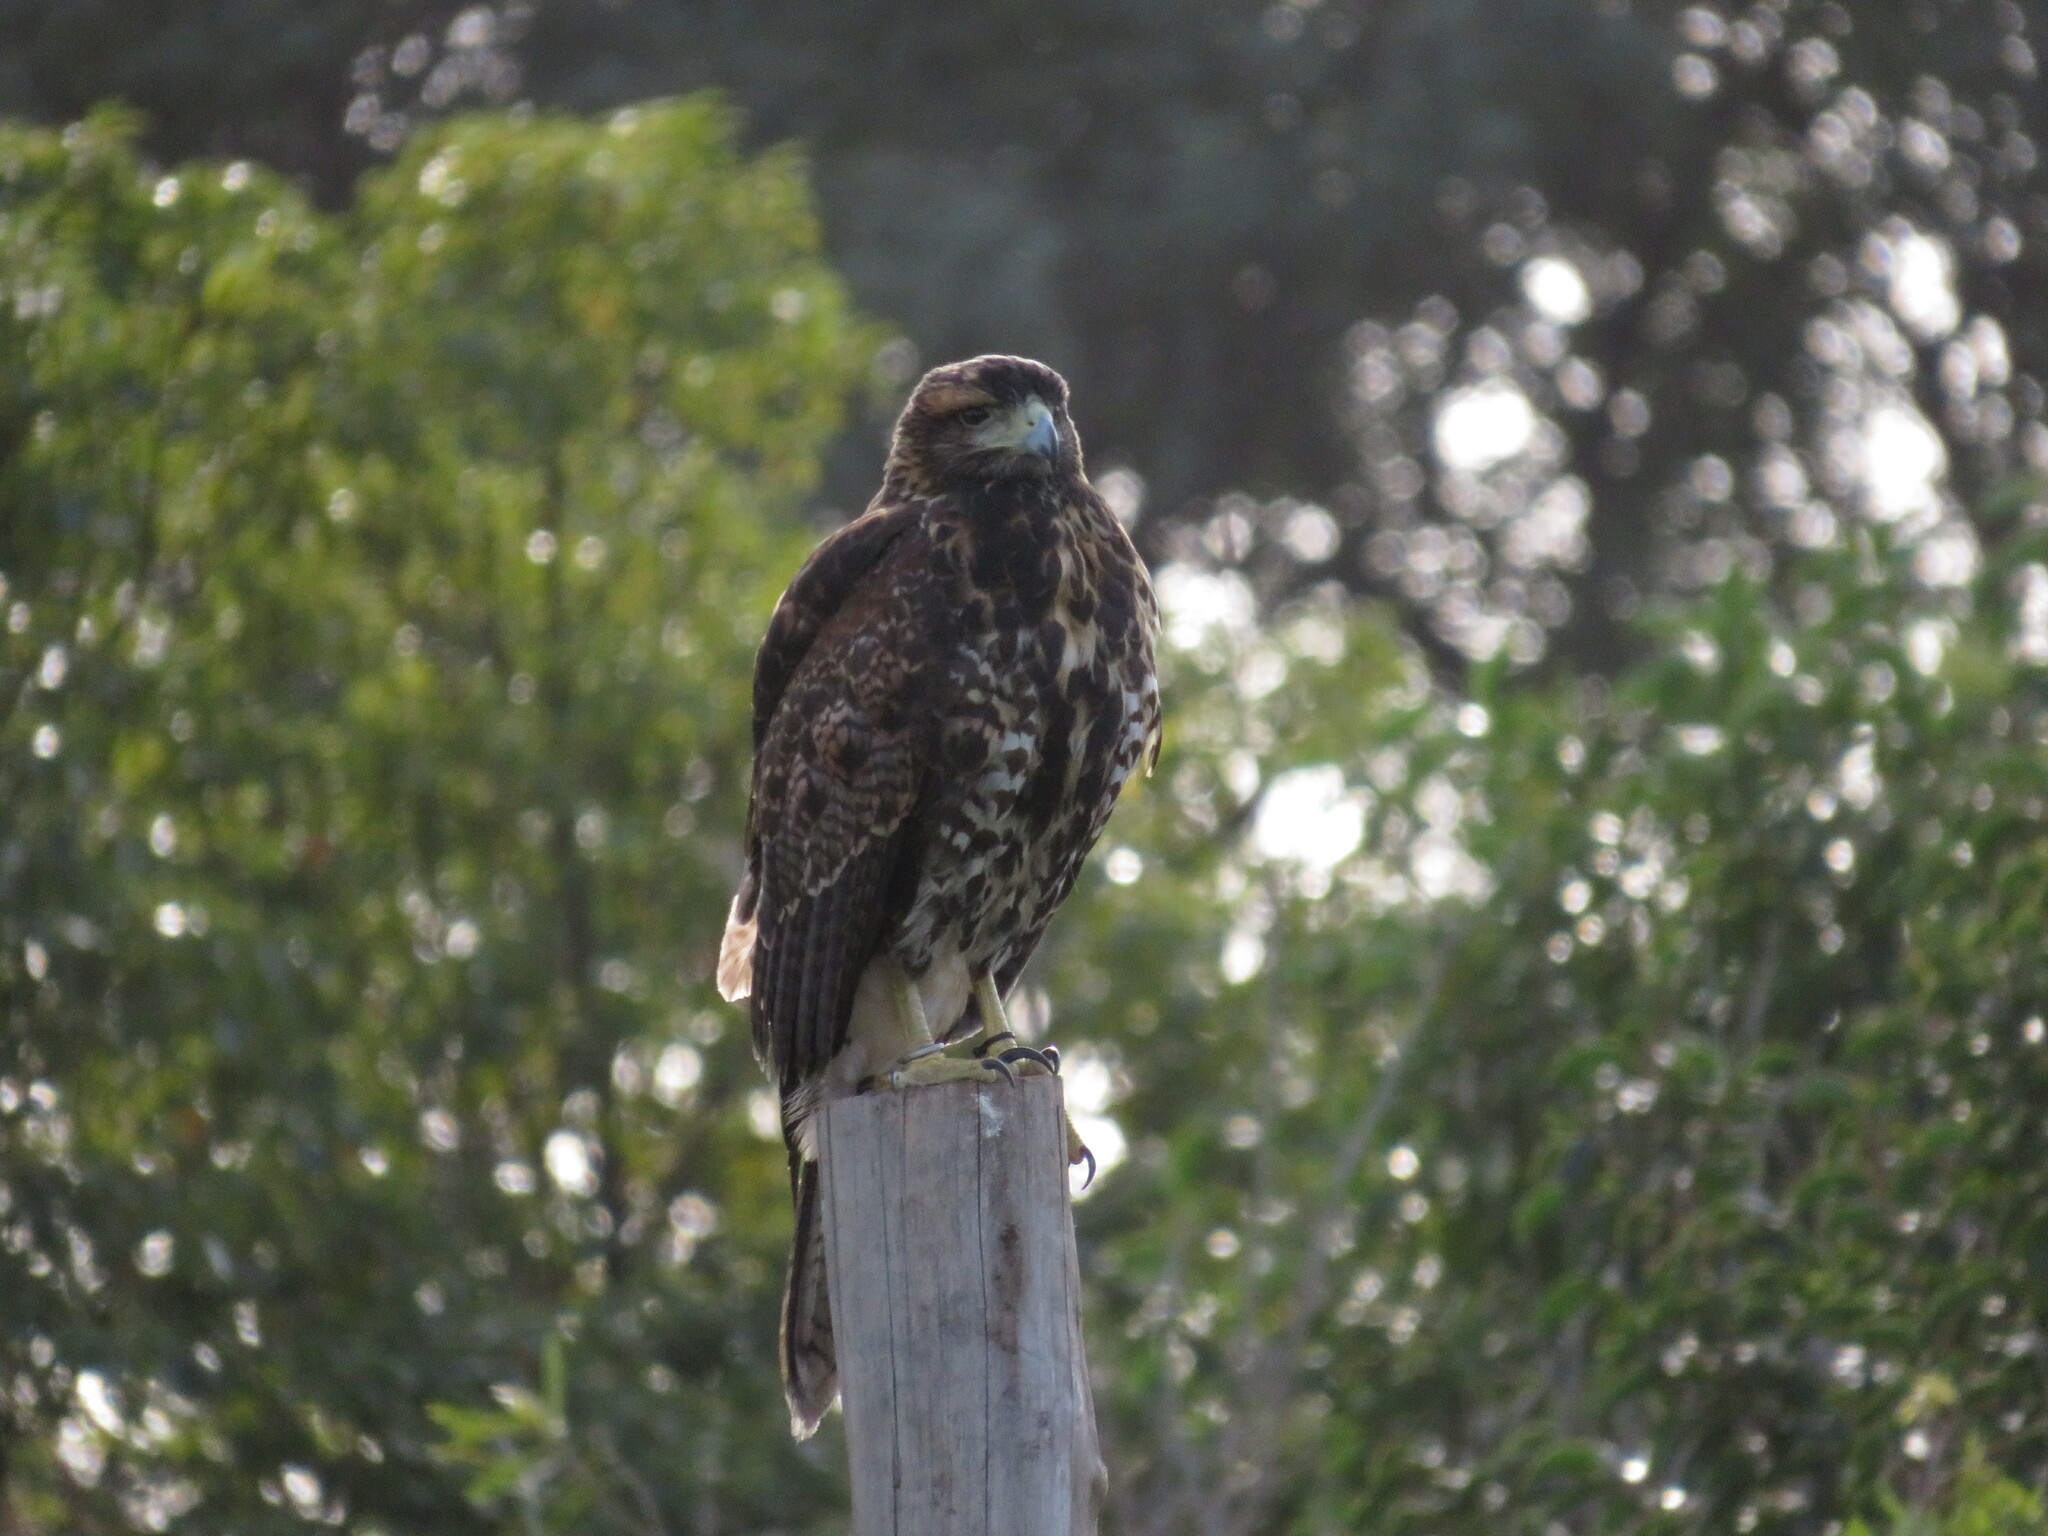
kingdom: Animalia
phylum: Chordata
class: Aves
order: Accipitriformes
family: Accipitridae
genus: Parabuteo
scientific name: Parabuteo unicinctus
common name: Harris's hawk
